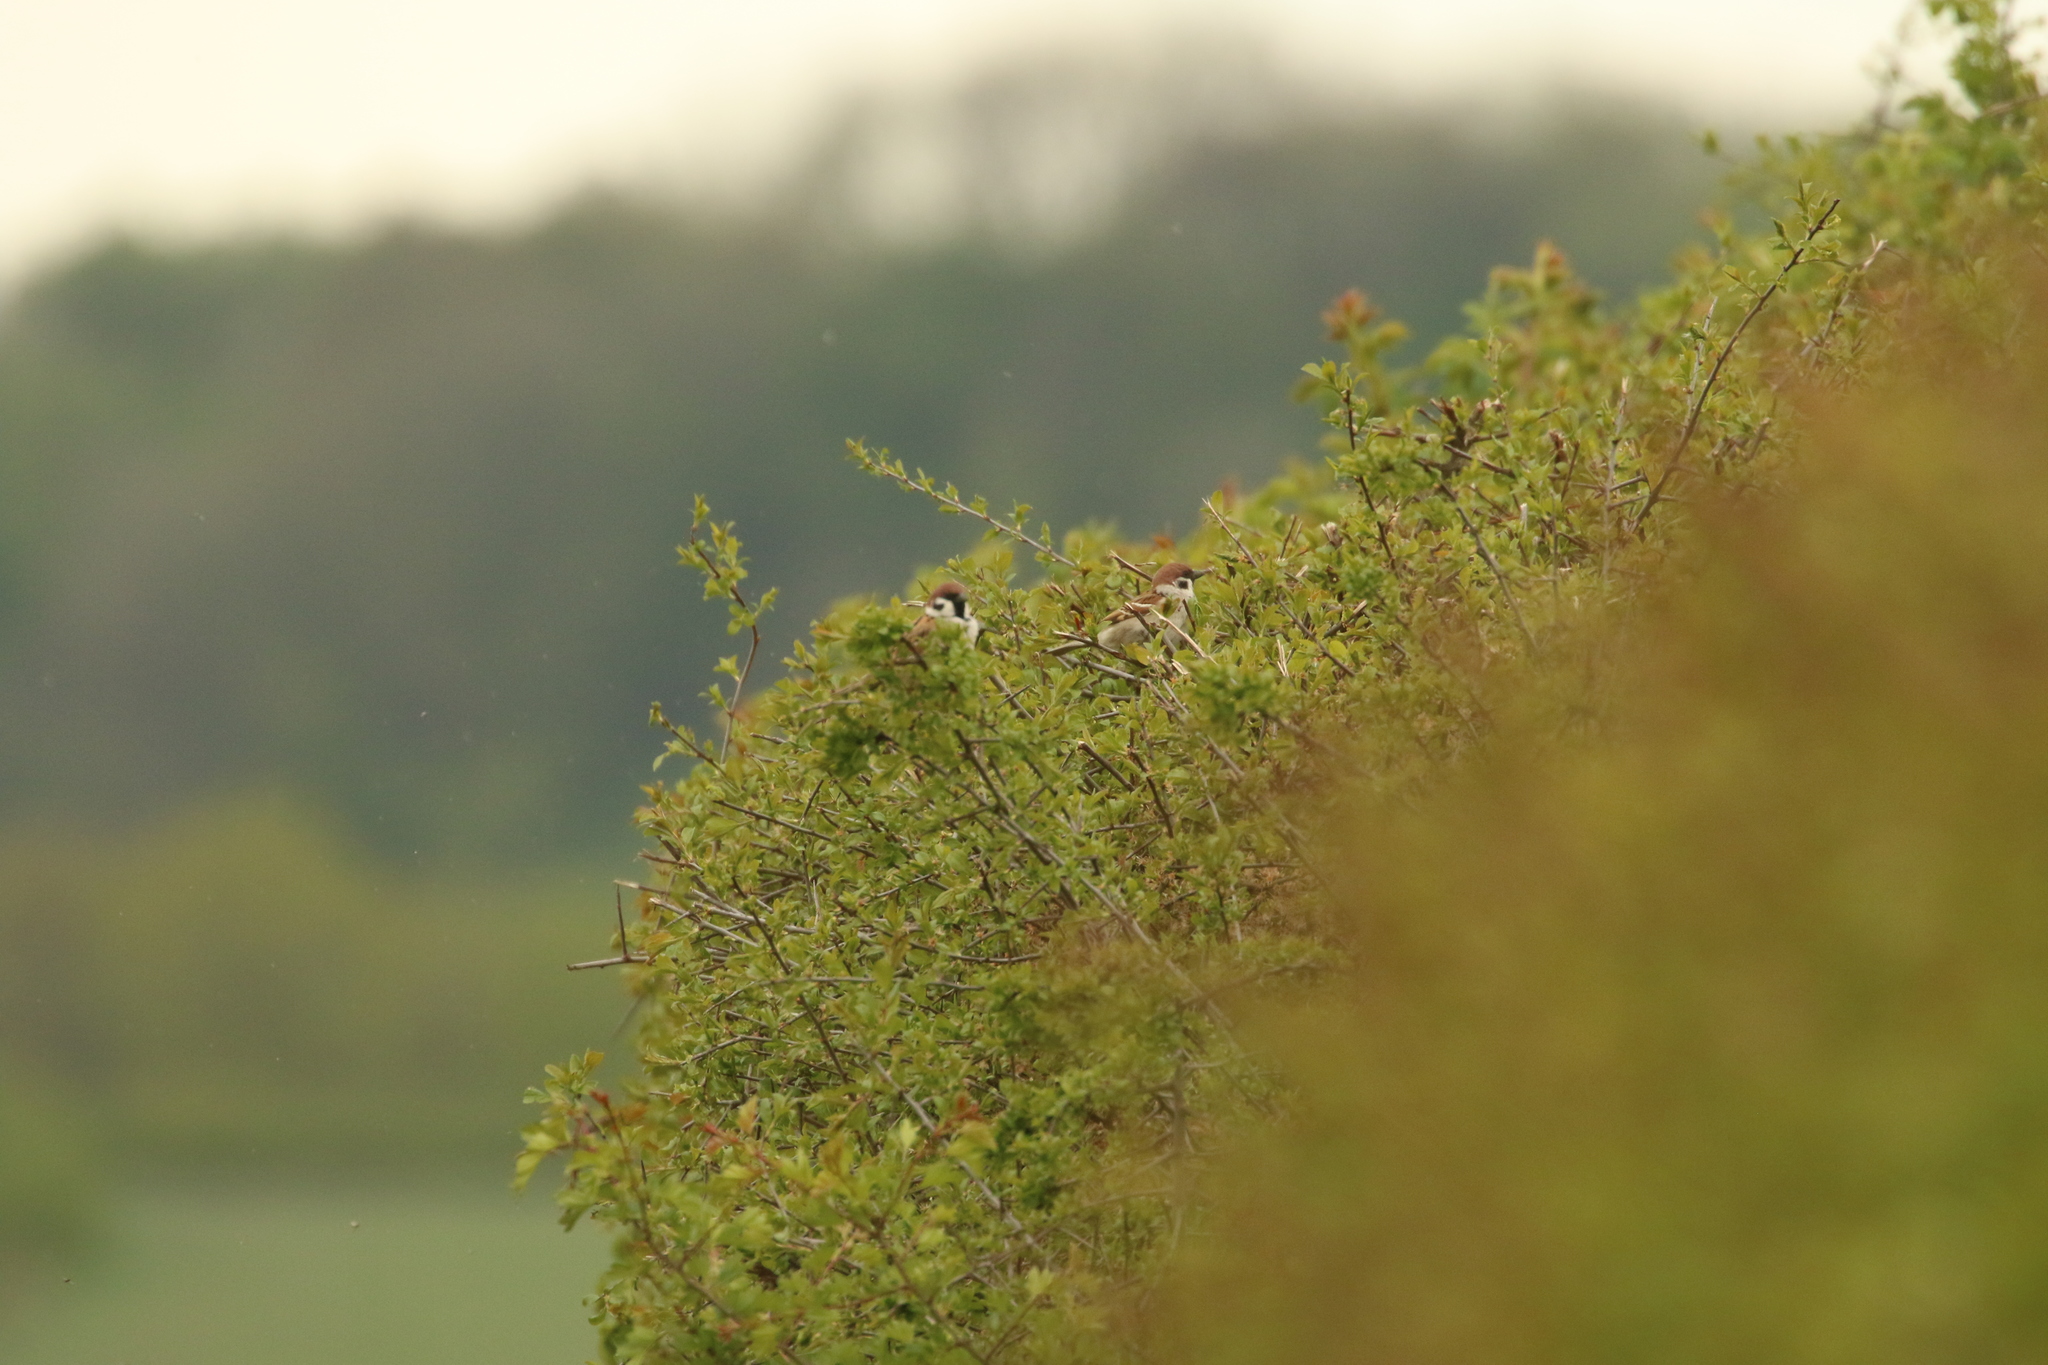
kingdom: Animalia
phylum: Chordata
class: Aves
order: Passeriformes
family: Passeridae
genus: Passer
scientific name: Passer montanus
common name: Eurasian tree sparrow
